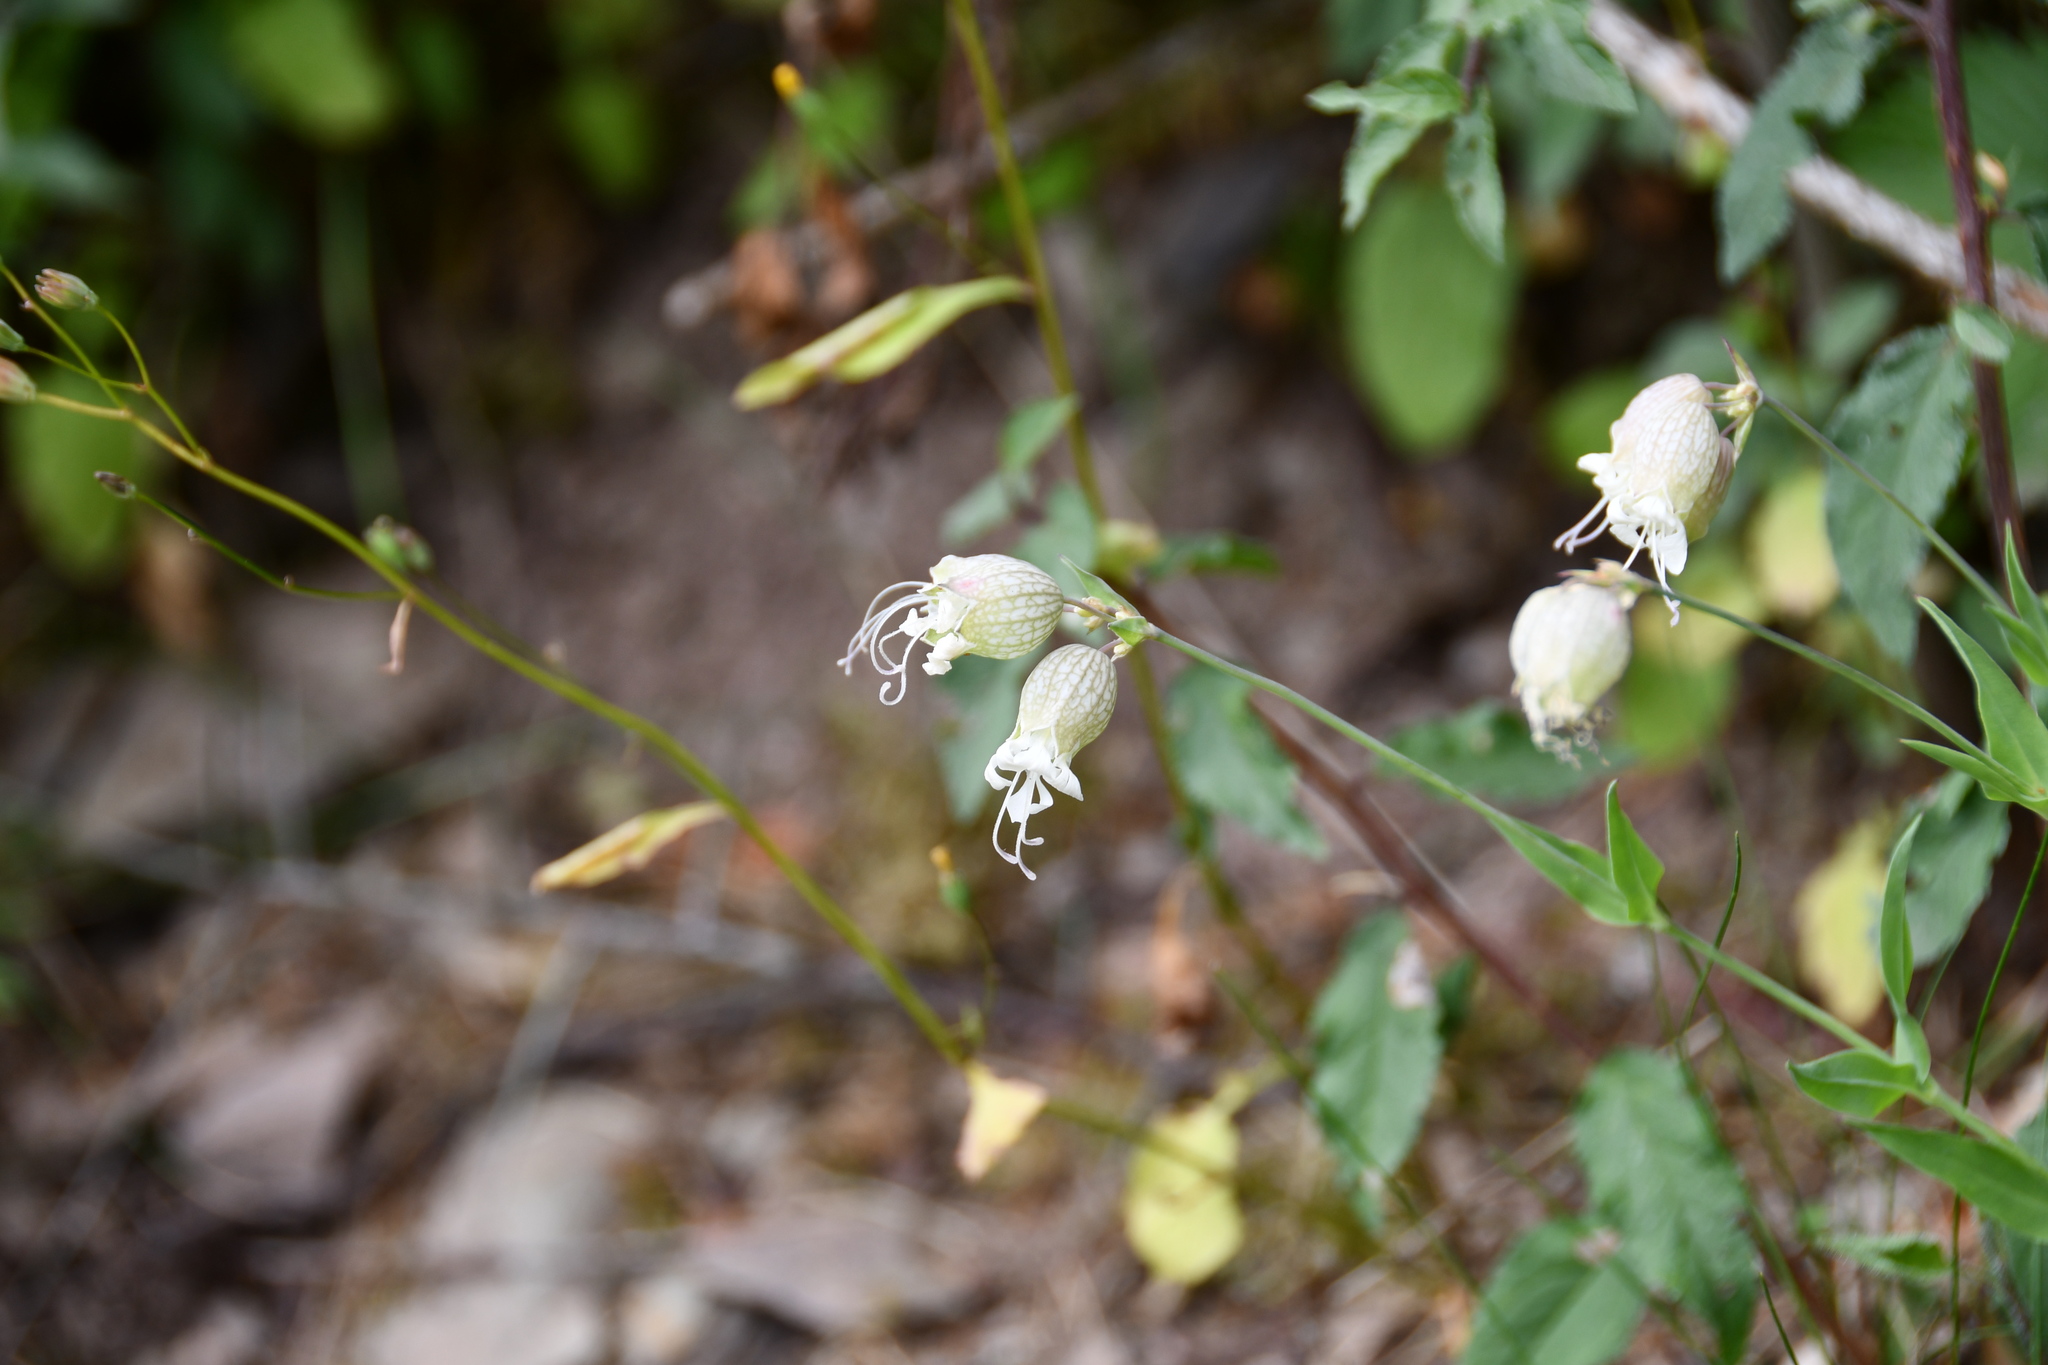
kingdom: Plantae
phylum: Tracheophyta
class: Magnoliopsida
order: Caryophyllales
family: Caryophyllaceae
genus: Silene
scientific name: Silene vulgaris
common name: Bladder campion
